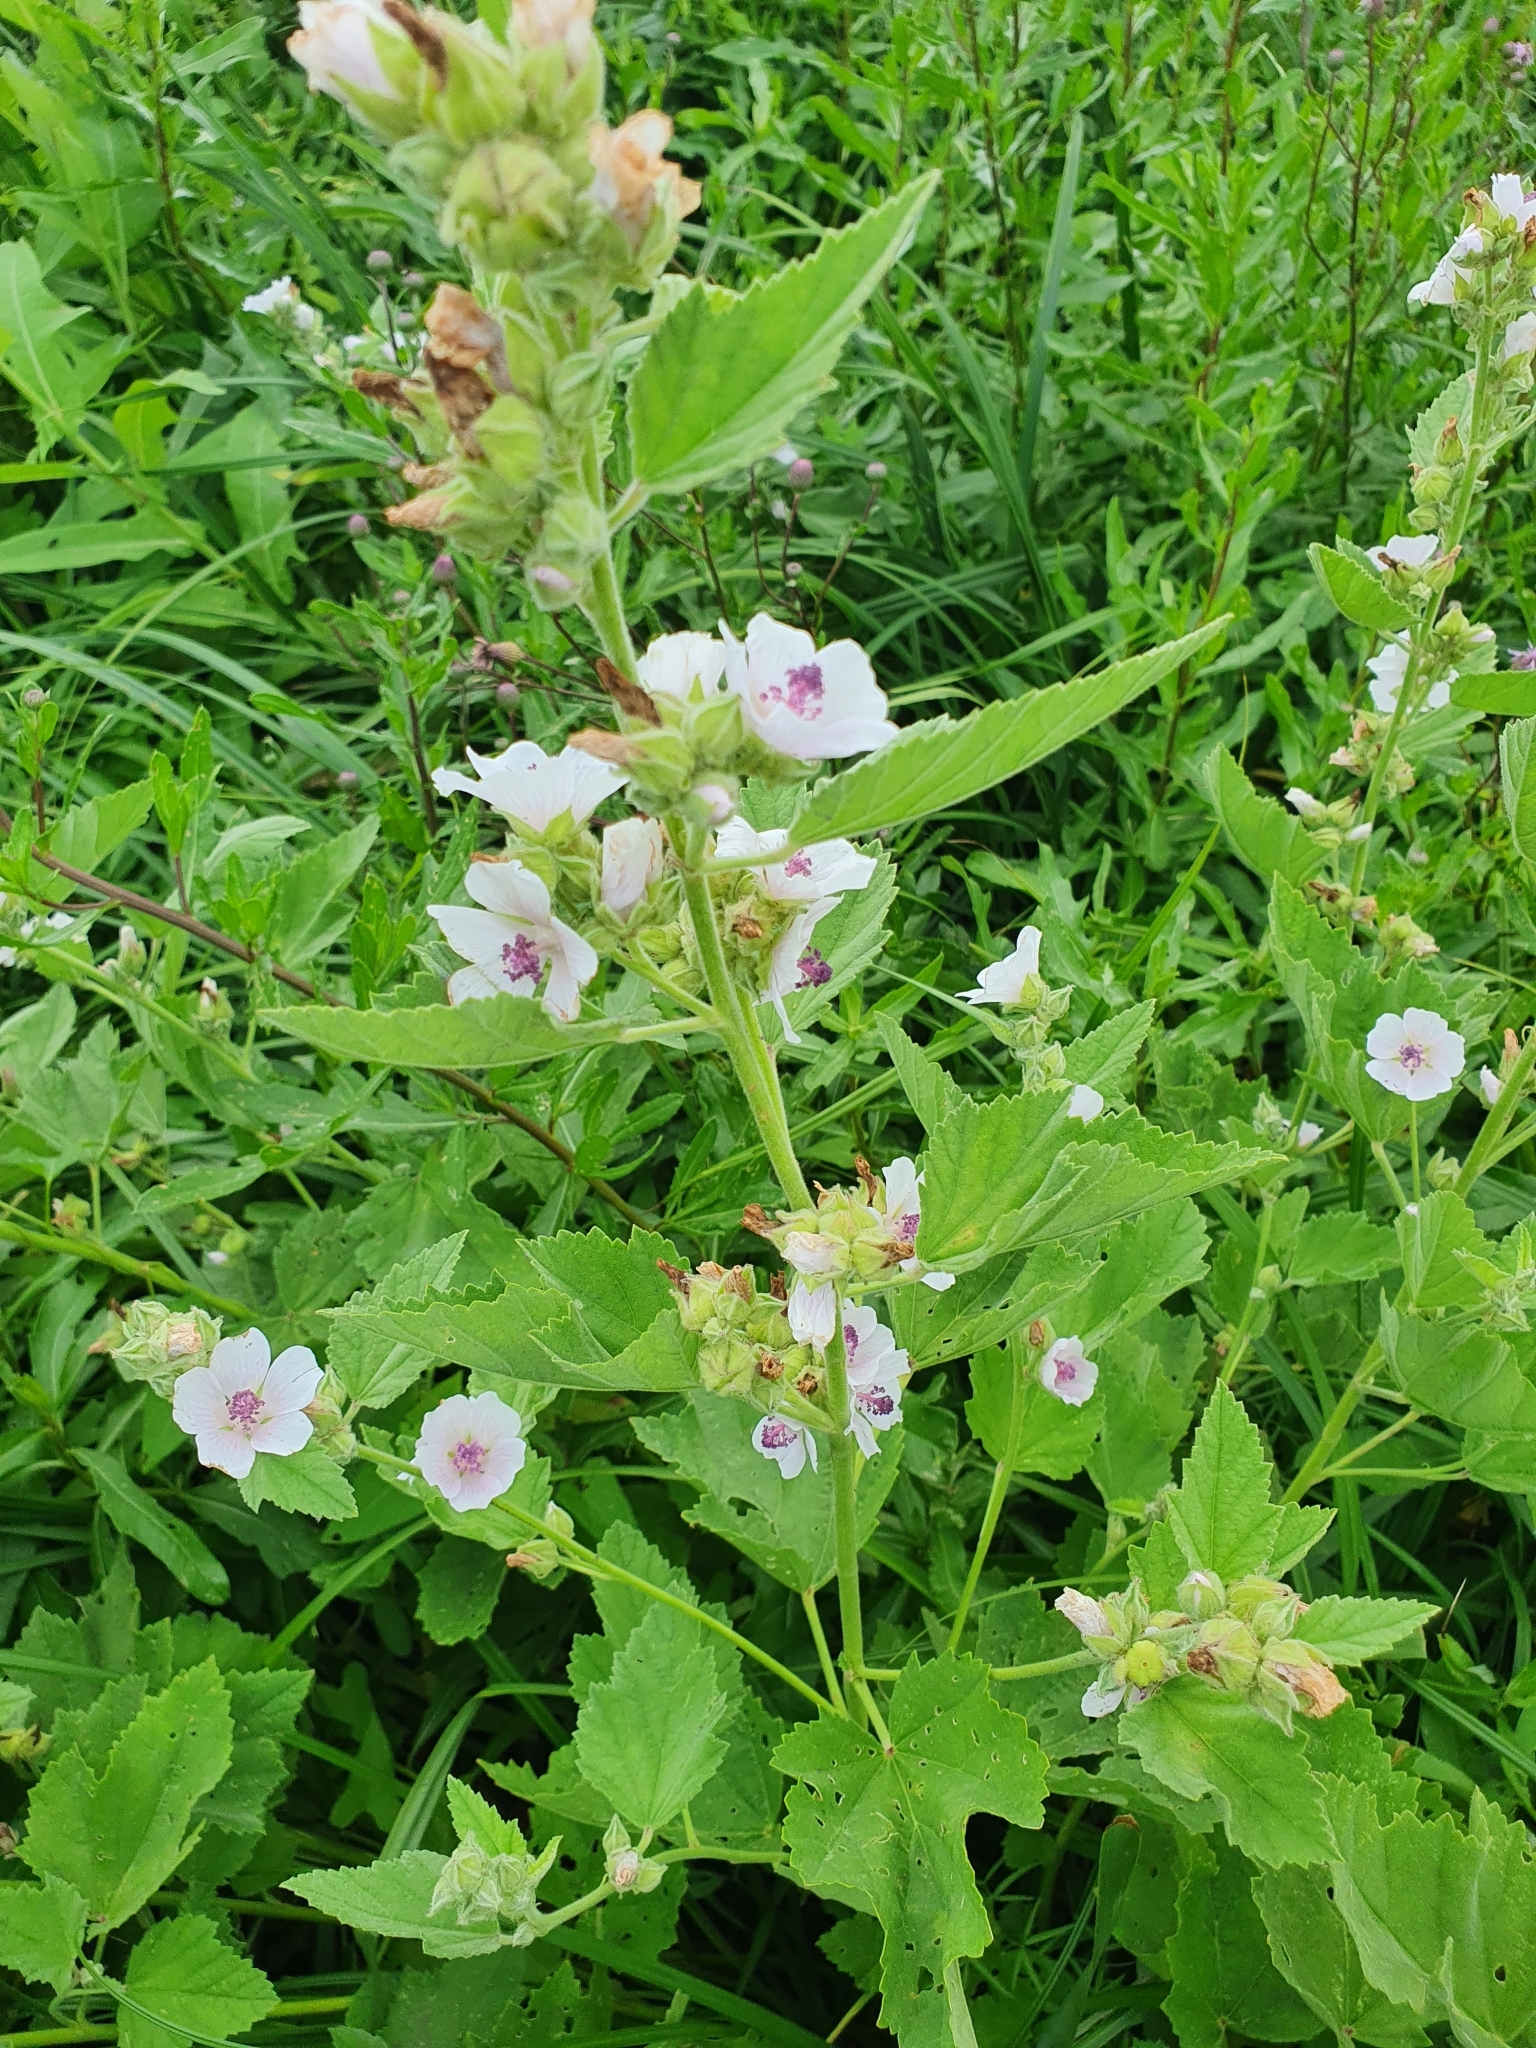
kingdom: Plantae
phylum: Tracheophyta
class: Magnoliopsida
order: Malvales
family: Malvaceae
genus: Althaea
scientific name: Althaea officinalis
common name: Marsh-mallow
